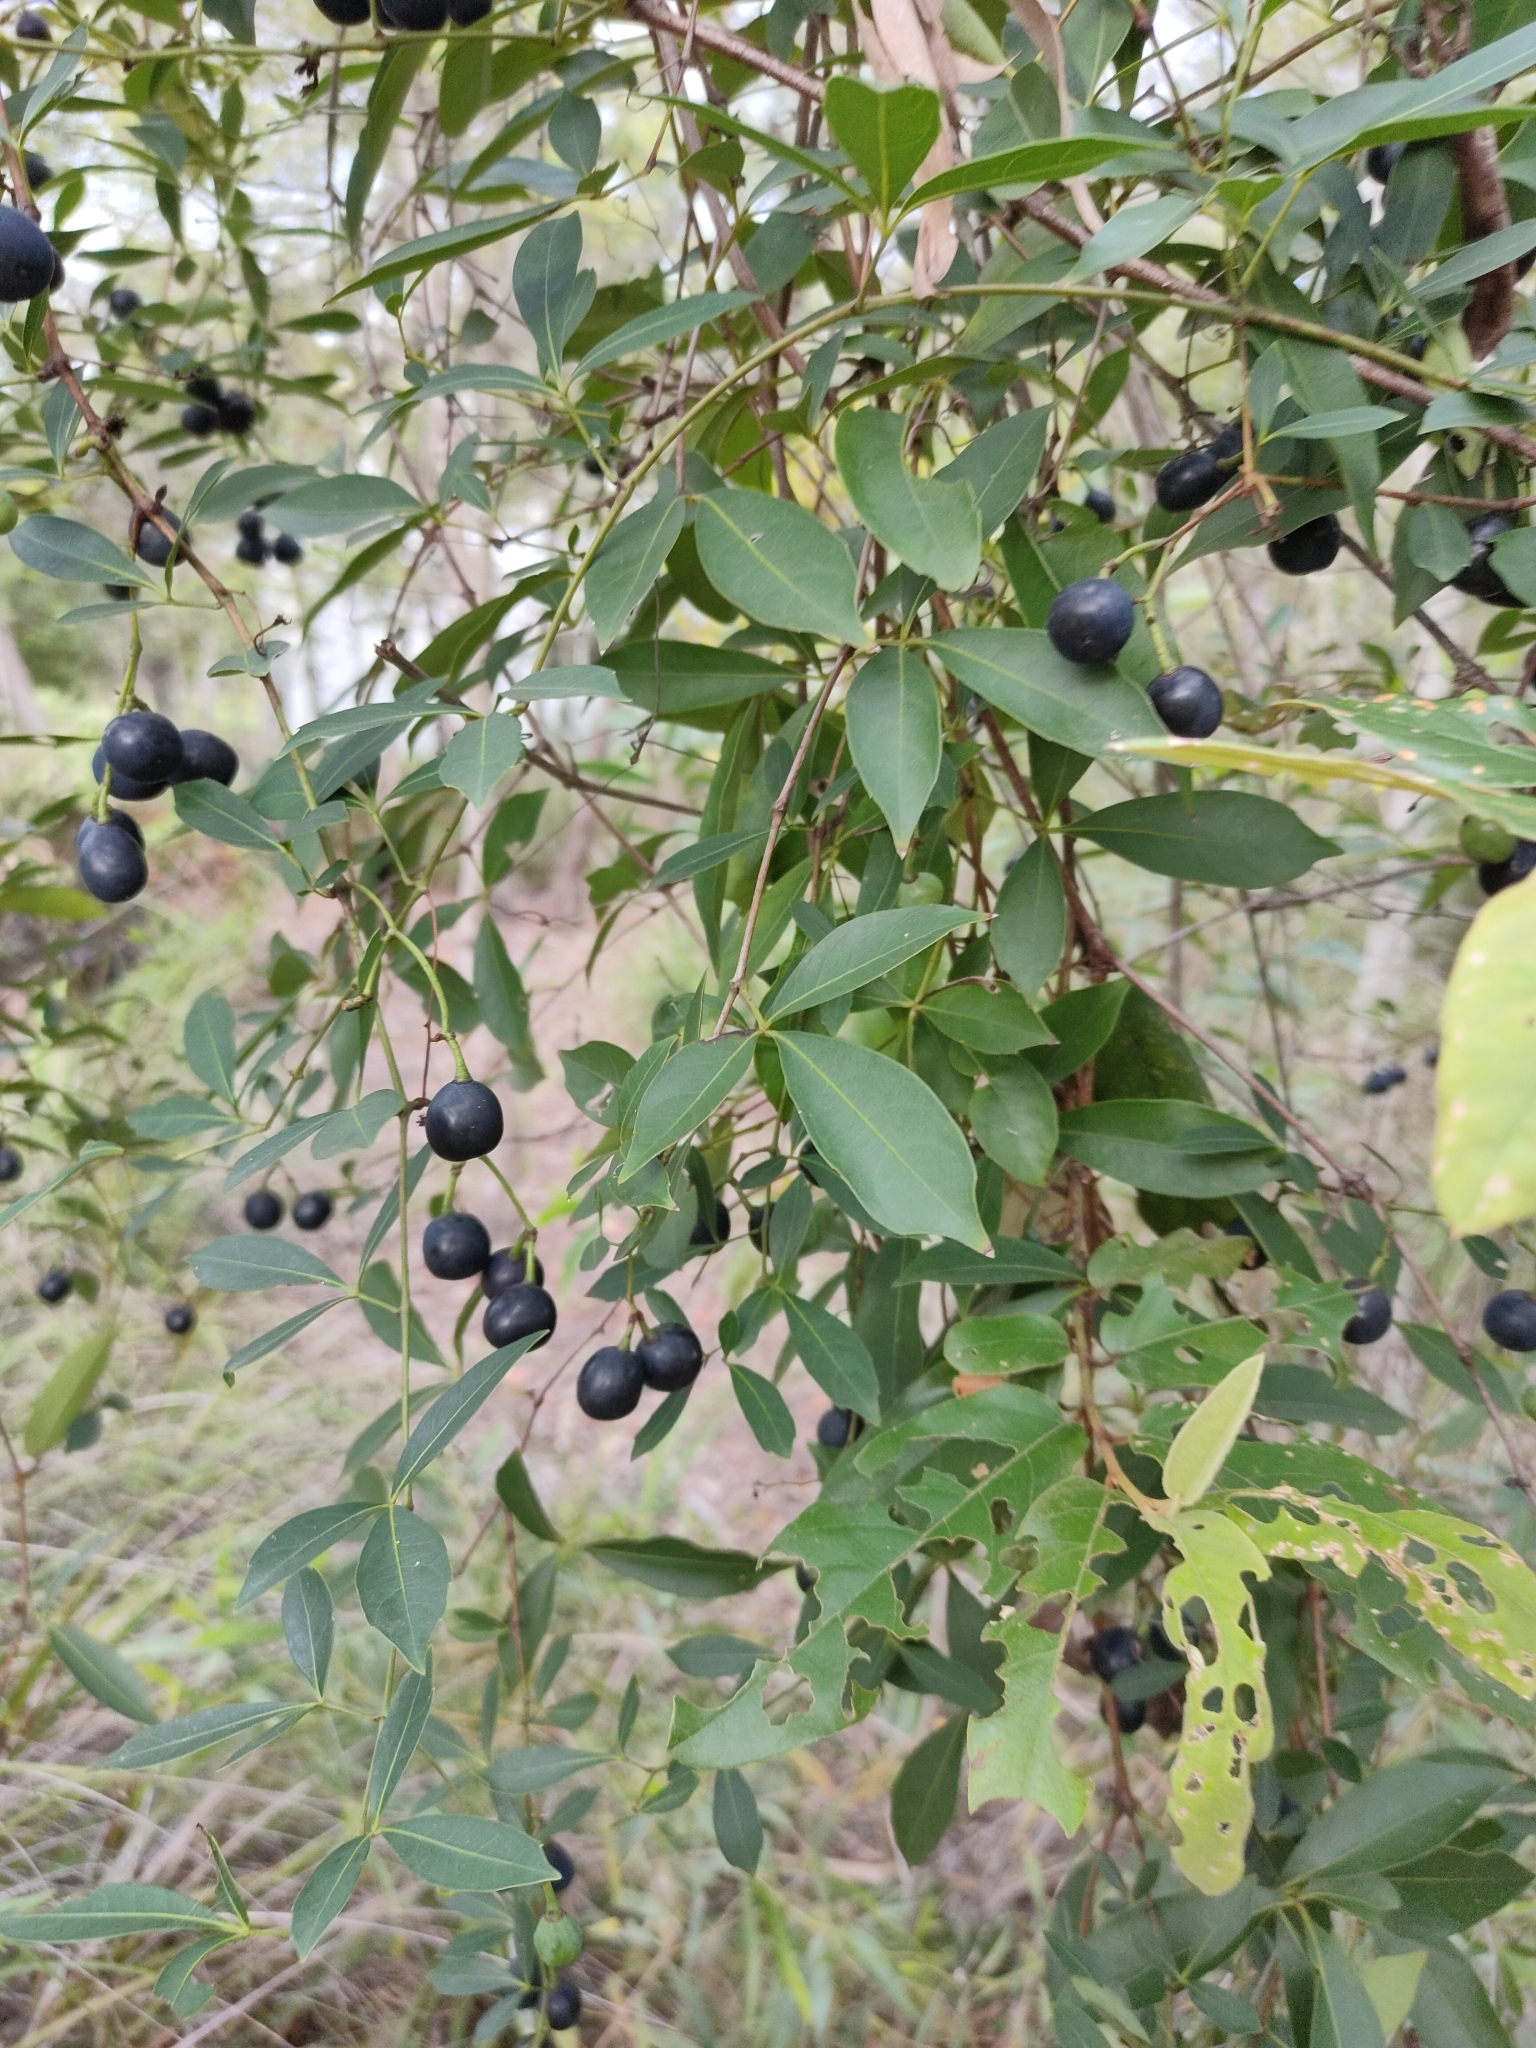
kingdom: Plantae
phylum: Tracheophyta
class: Magnoliopsida
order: Vitales
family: Vitaceae
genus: Clematicissus
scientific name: Clematicissus opaca
